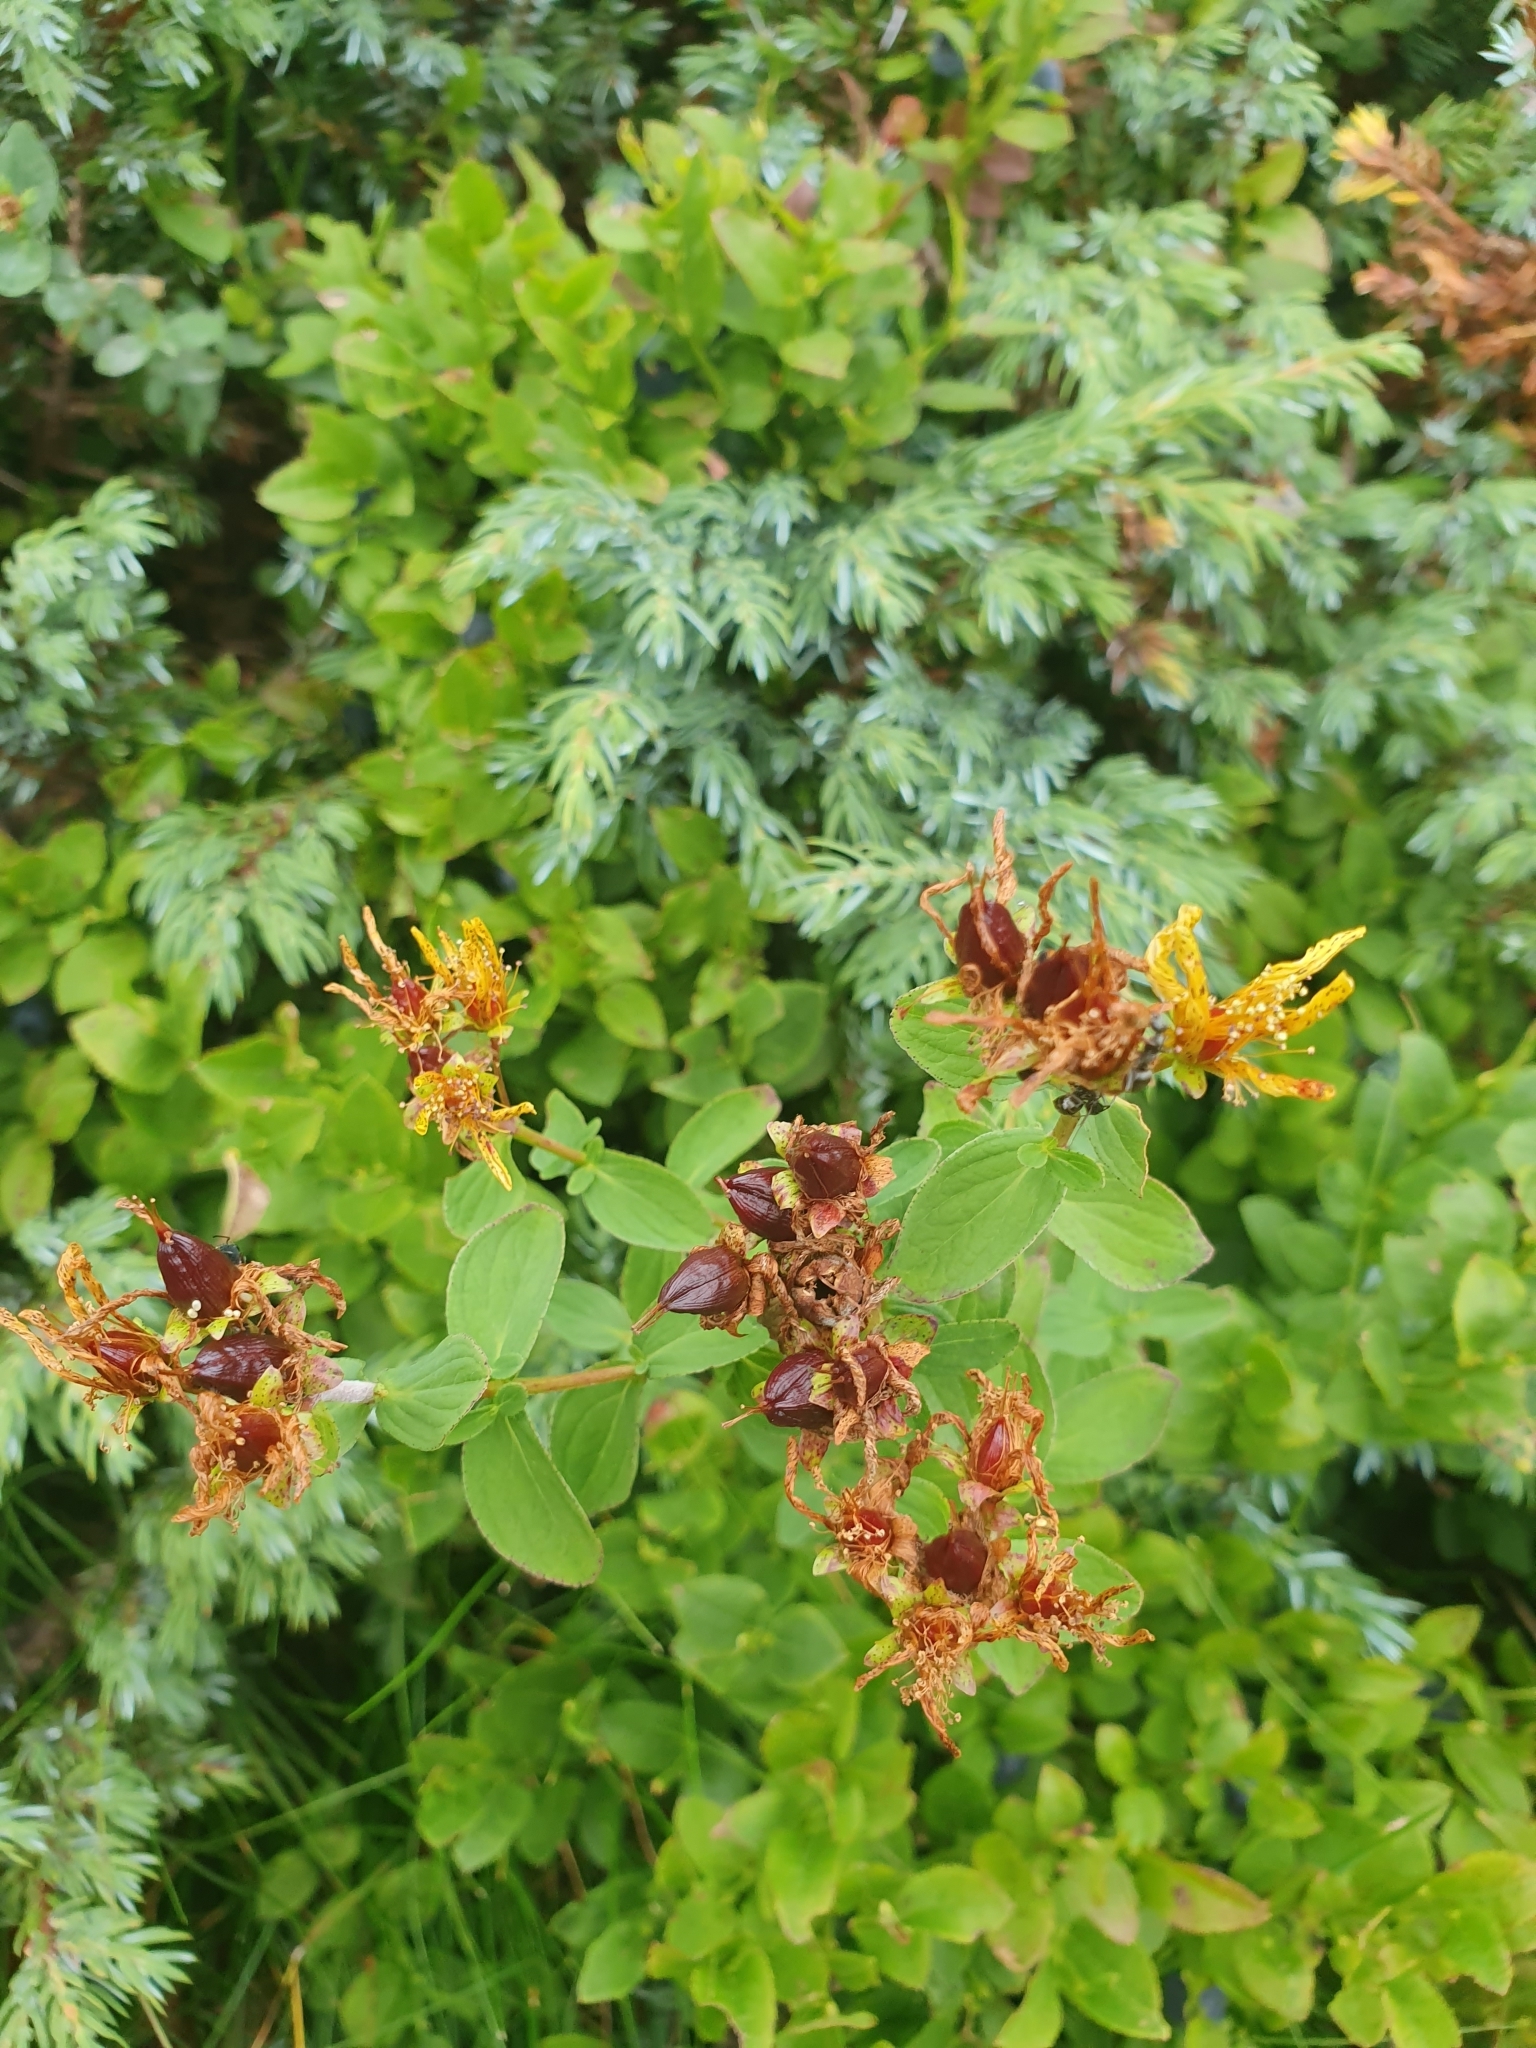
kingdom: Plantae
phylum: Tracheophyta
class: Magnoliopsida
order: Malpighiales
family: Hypericaceae
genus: Hypericum
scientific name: Hypericum maculatum
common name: Imperforate st. john's-wort
